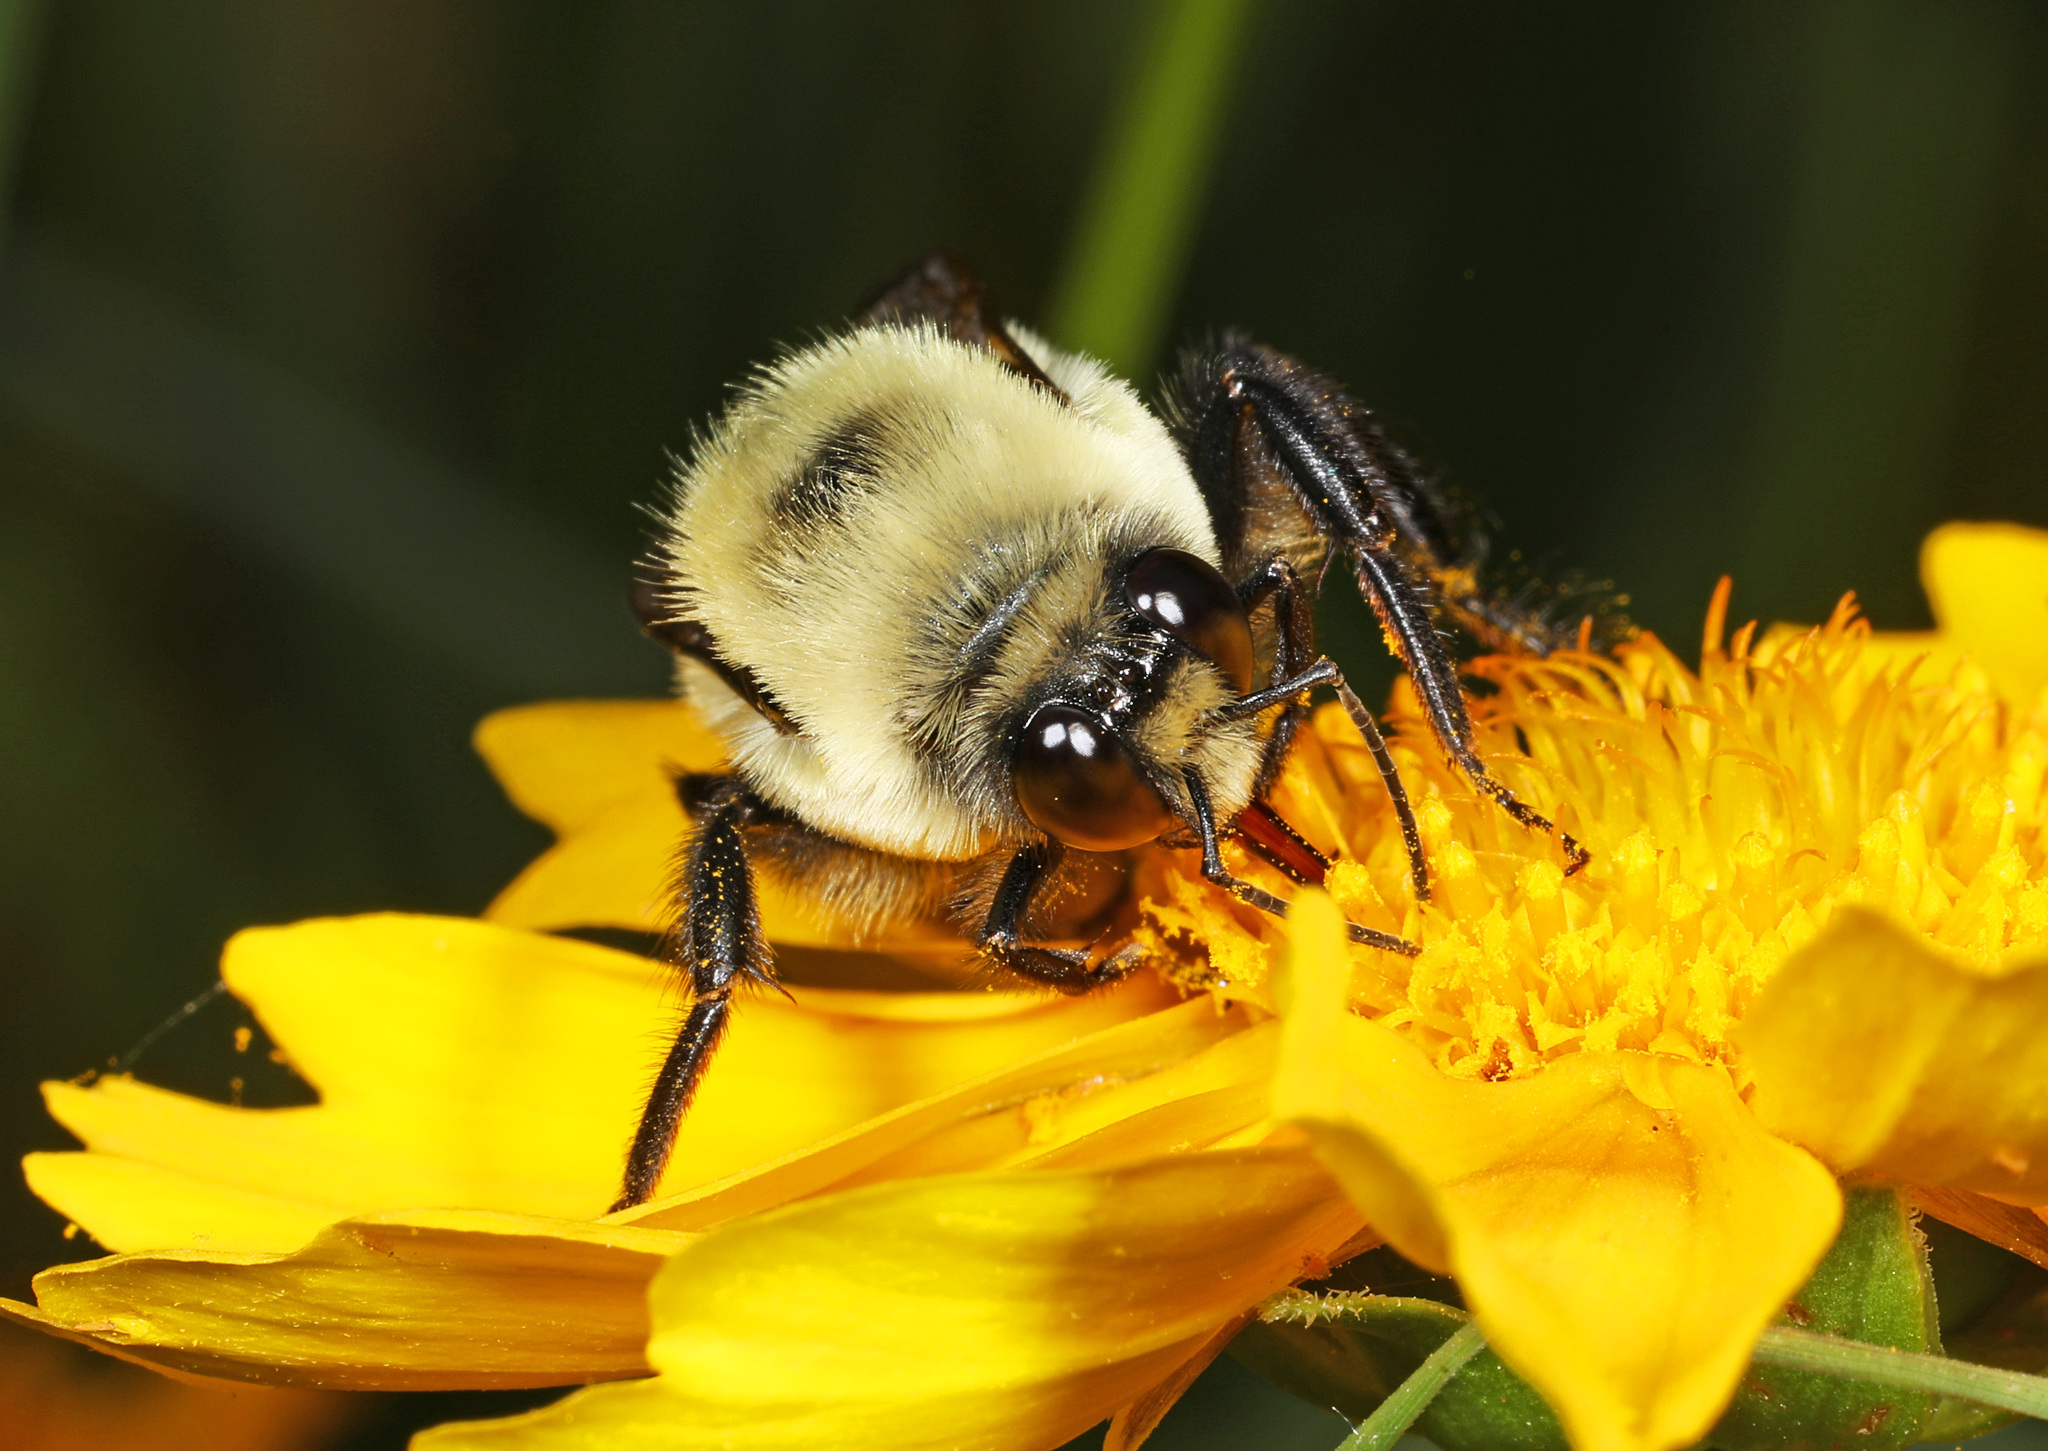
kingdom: Animalia
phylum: Arthropoda
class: Insecta
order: Hymenoptera
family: Apidae
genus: Bombus
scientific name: Bombus griseocollis
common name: Brown-belted bumble bee
